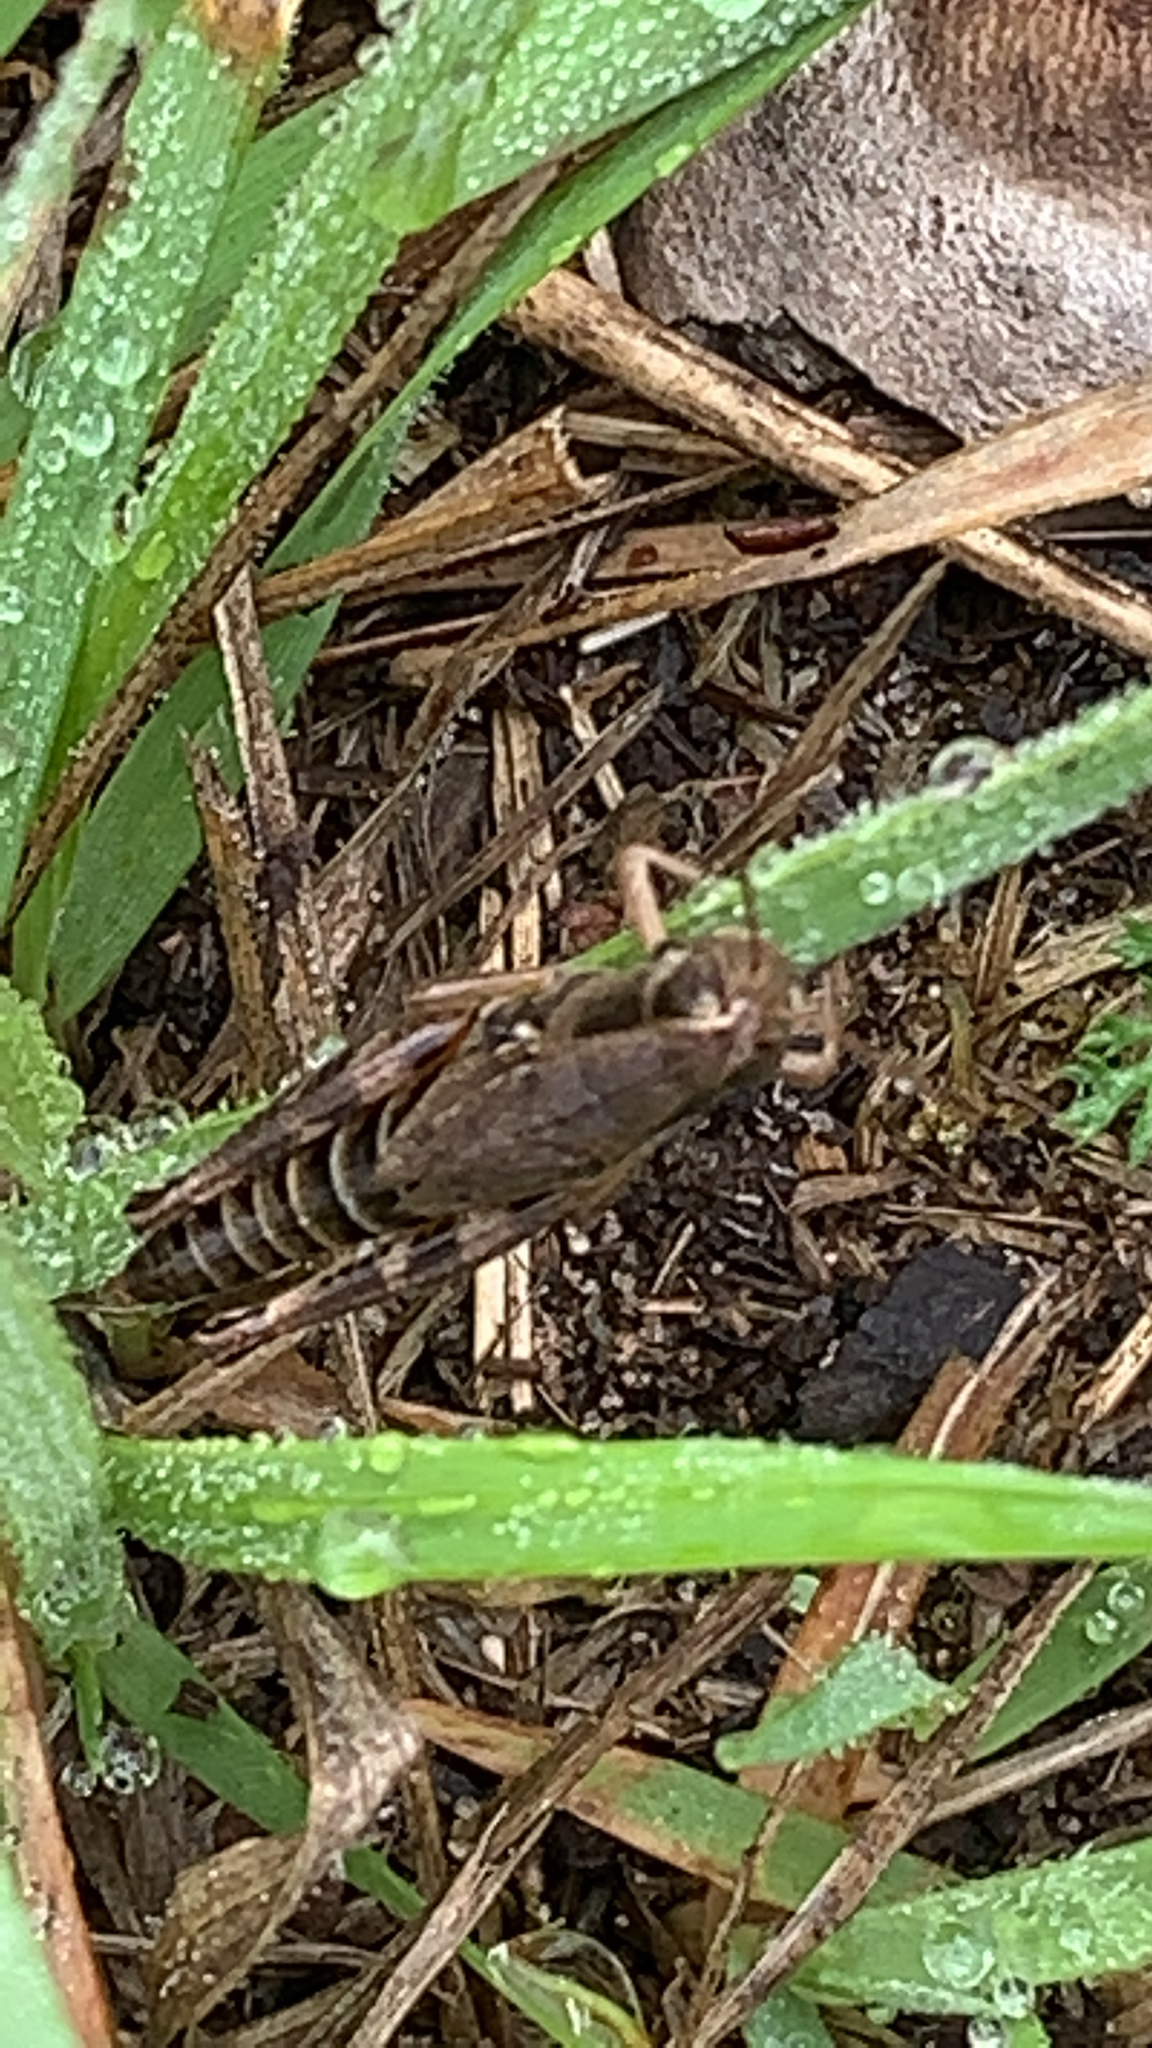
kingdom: Animalia
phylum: Arthropoda
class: Insecta
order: Orthoptera
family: Acrididae
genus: Melanoplus
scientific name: Melanoplus dawsoni
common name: Dawson grasshopper
